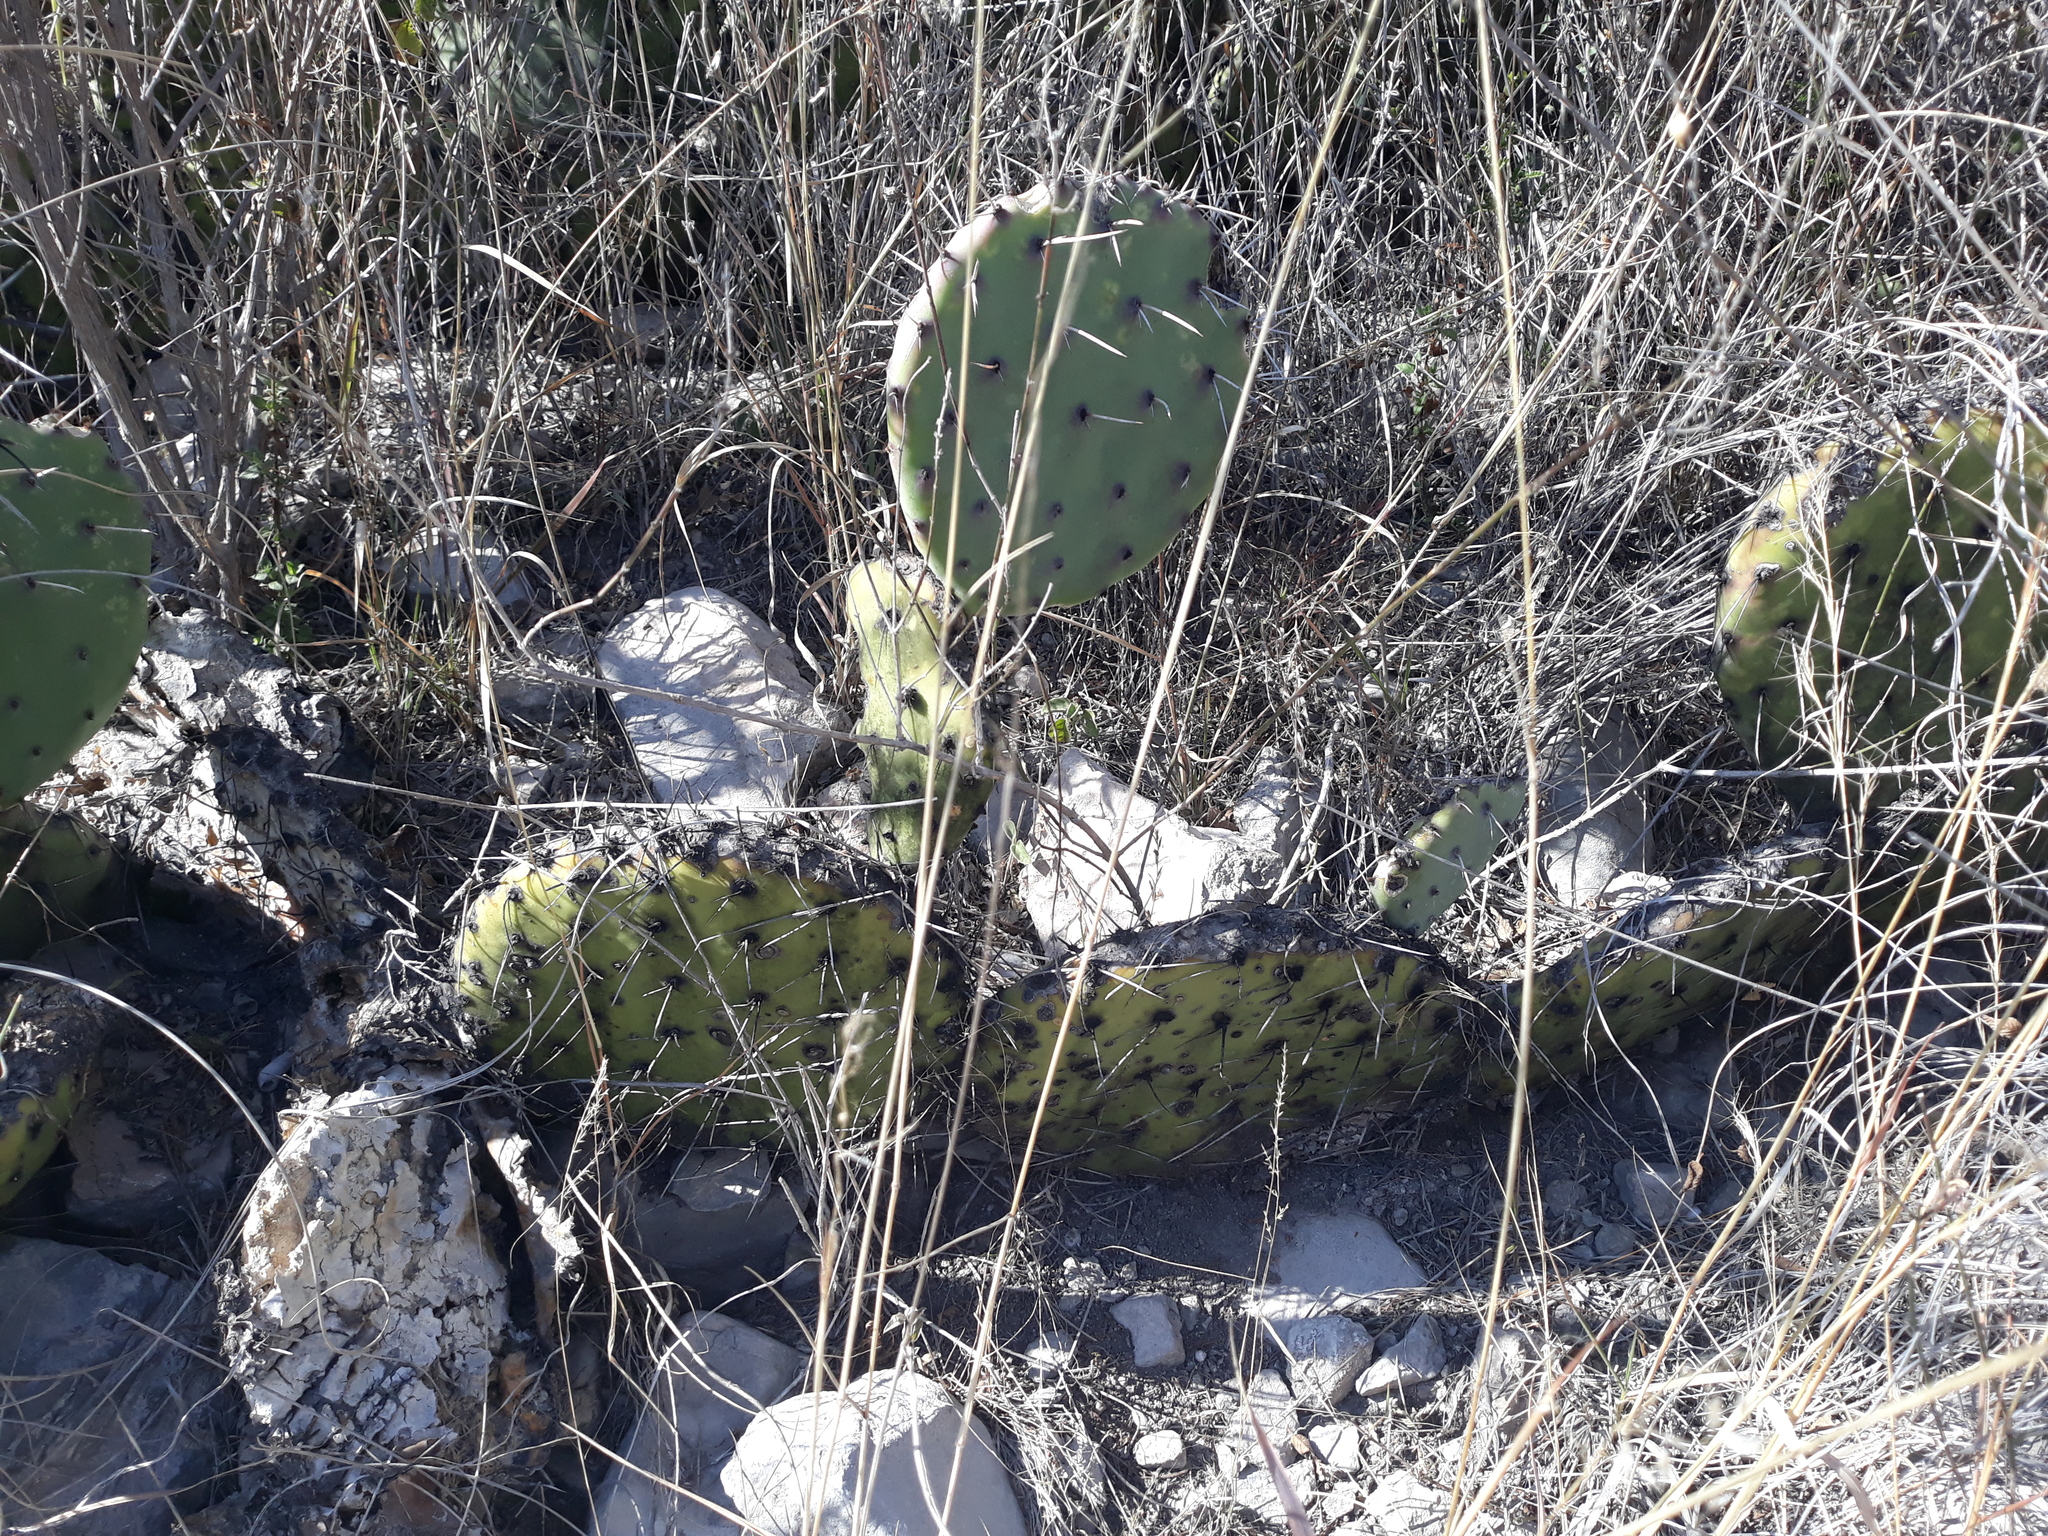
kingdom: Plantae
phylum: Tracheophyta
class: Magnoliopsida
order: Caryophyllales
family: Cactaceae
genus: Opuntia
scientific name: Opuntia stenopetala
